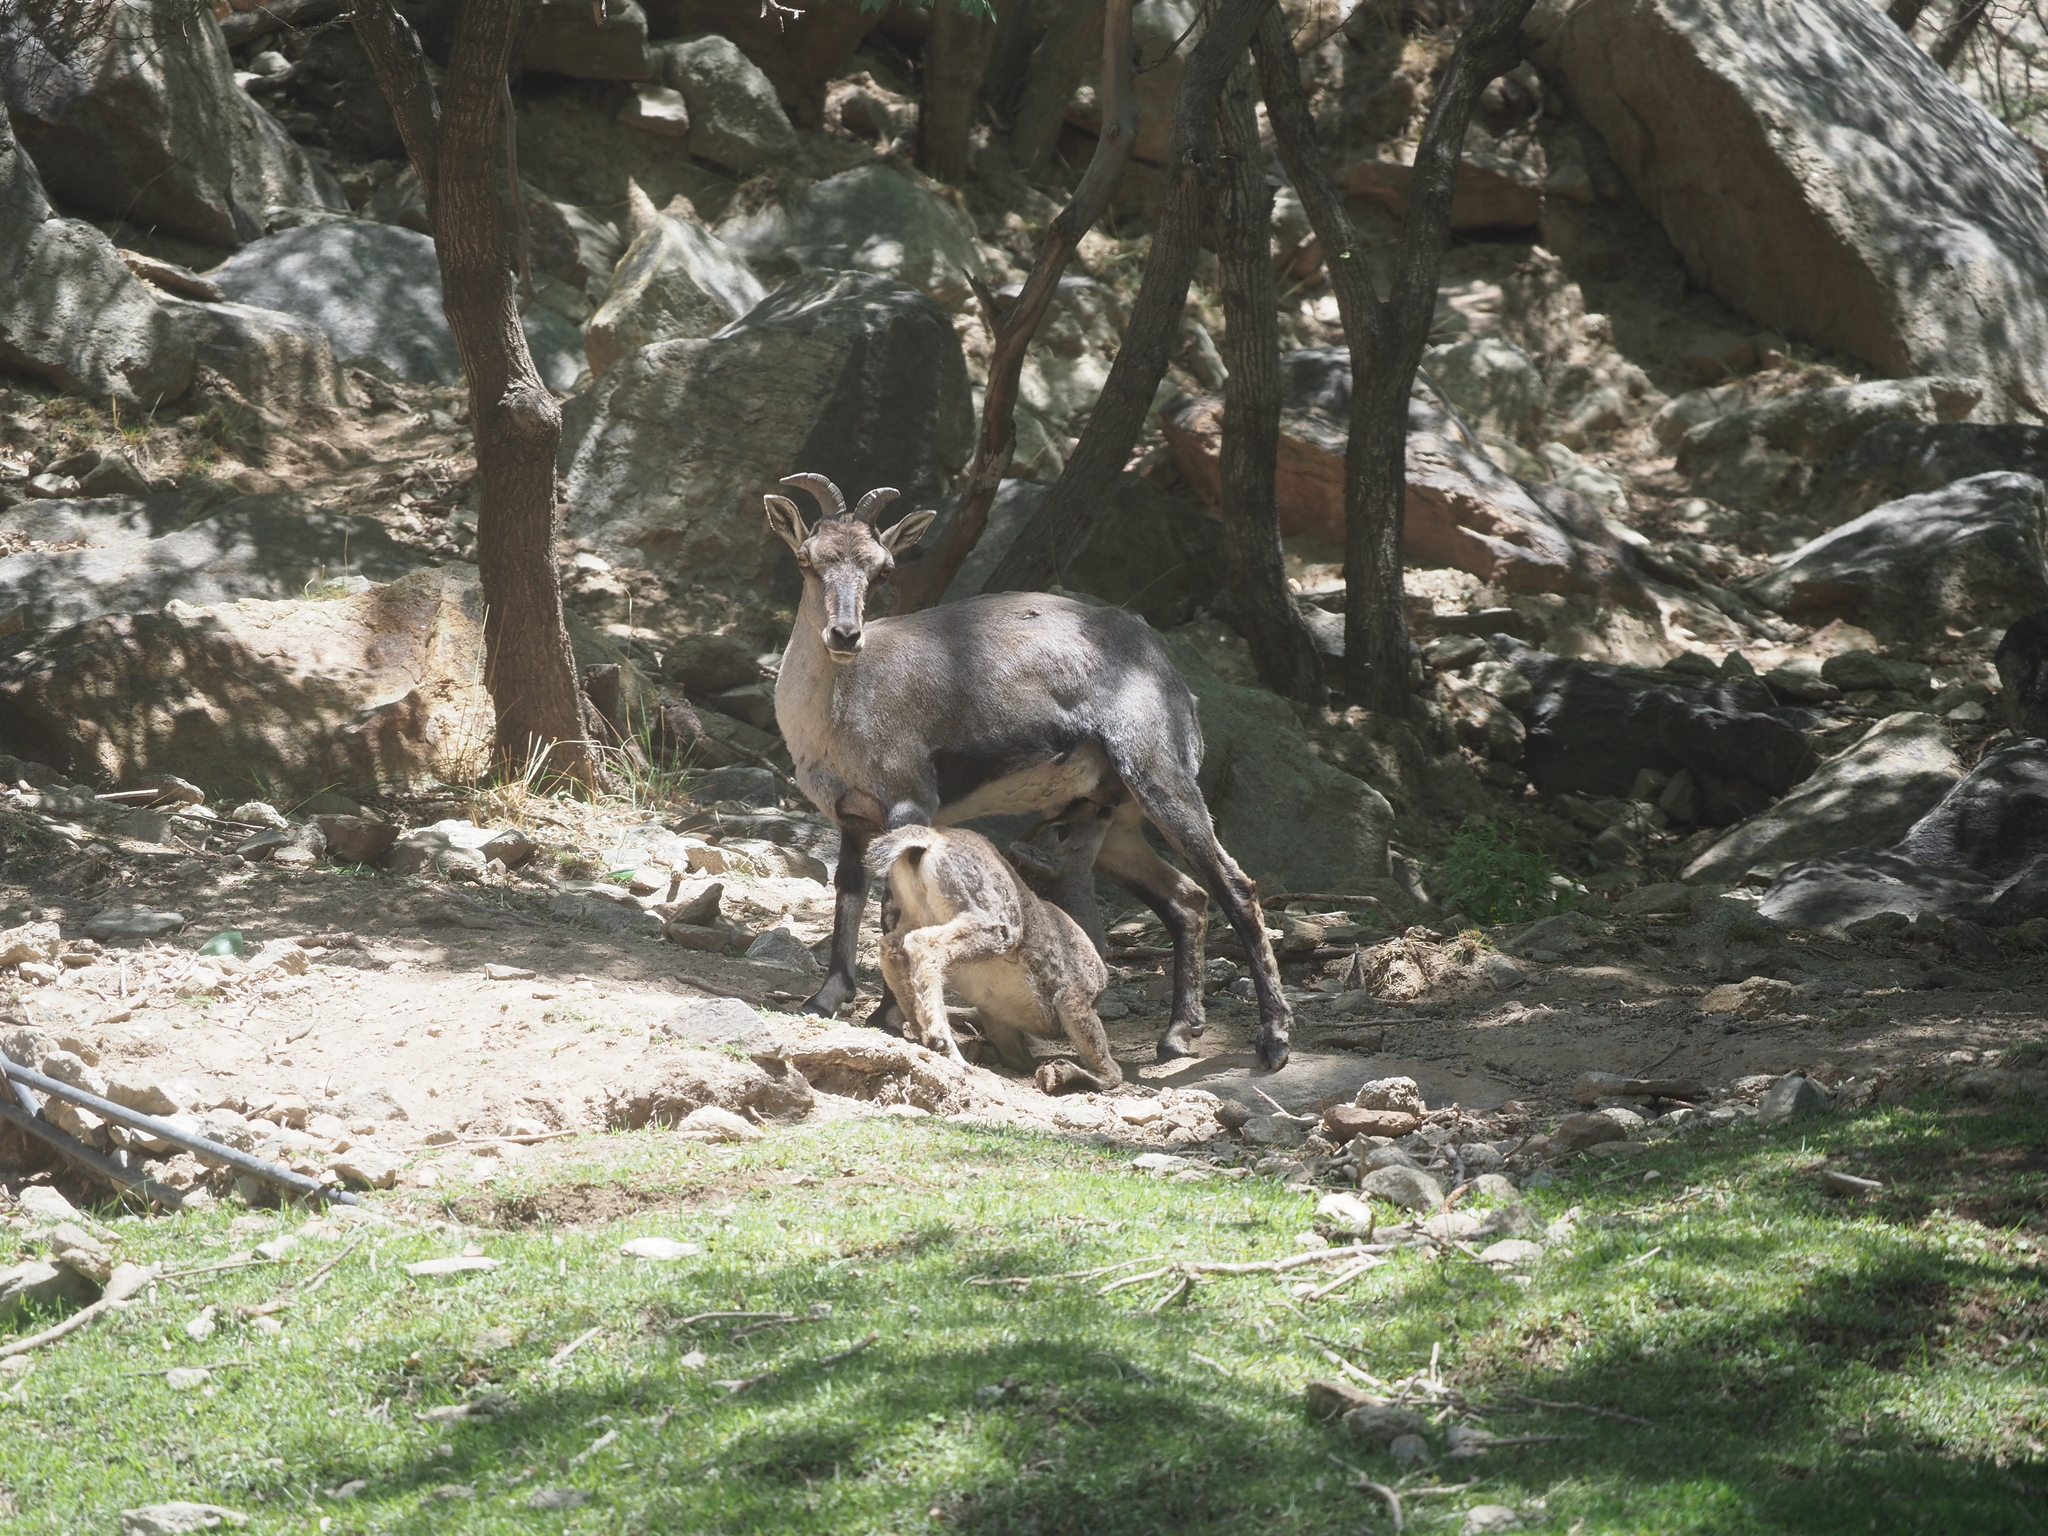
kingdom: Animalia
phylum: Chordata
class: Mammalia
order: Artiodactyla
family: Bovidae
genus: Pseudois
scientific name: Pseudois nayaur
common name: Bharal
